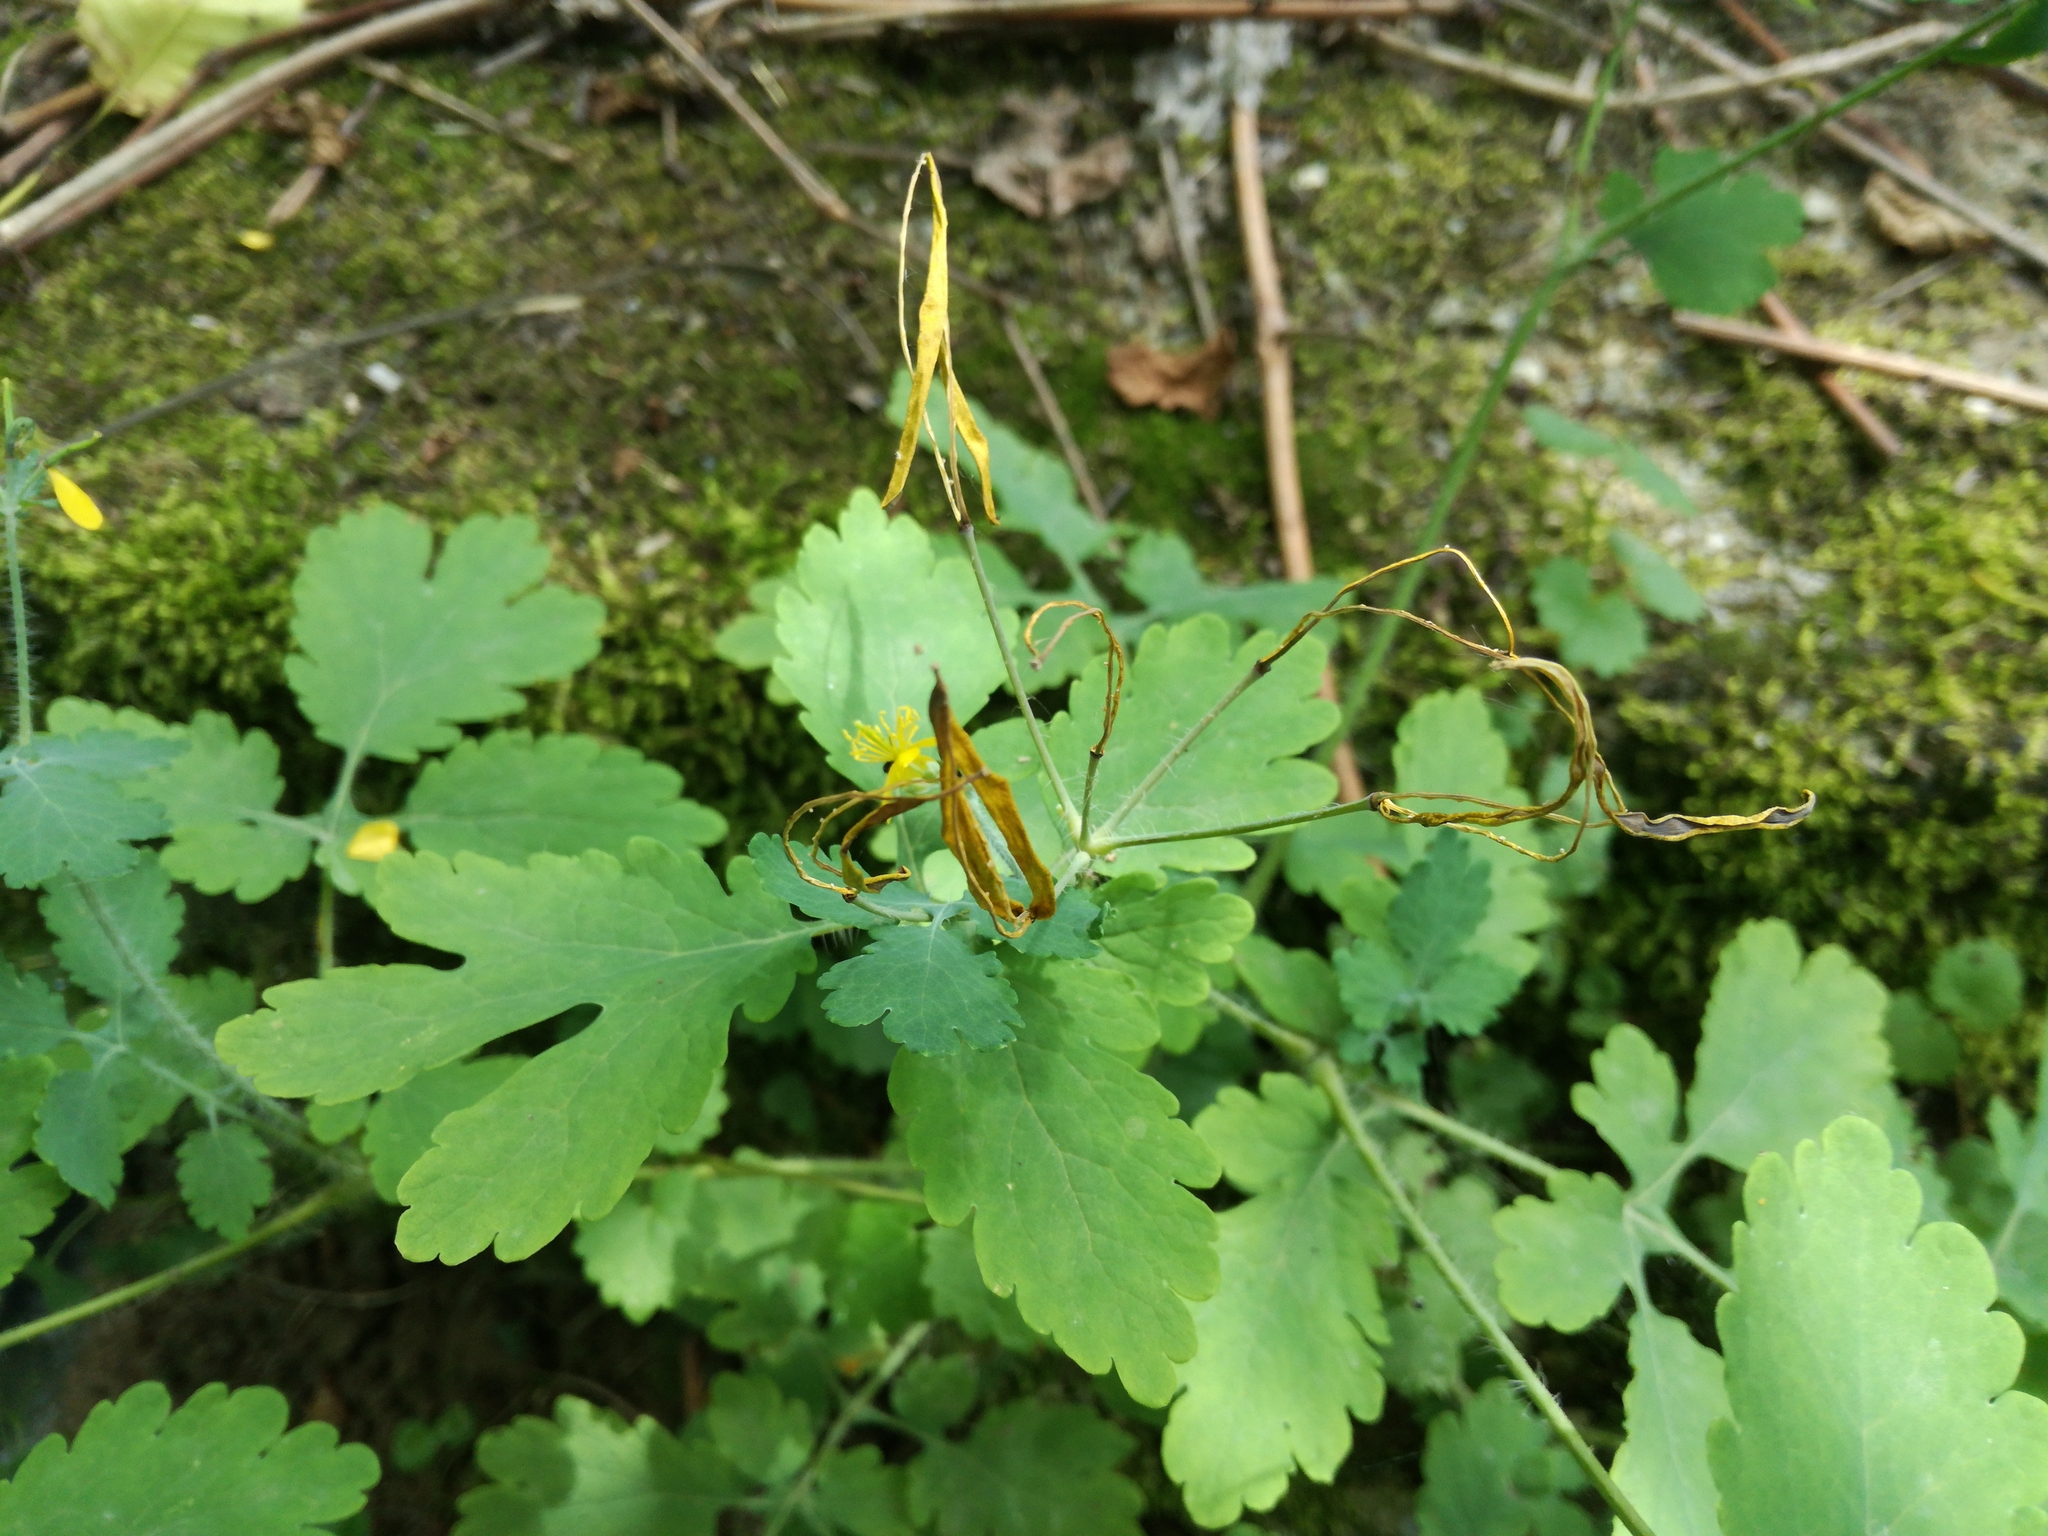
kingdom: Plantae
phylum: Tracheophyta
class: Magnoliopsida
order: Ranunculales
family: Papaveraceae
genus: Chelidonium
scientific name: Chelidonium majus
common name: Greater celandine
